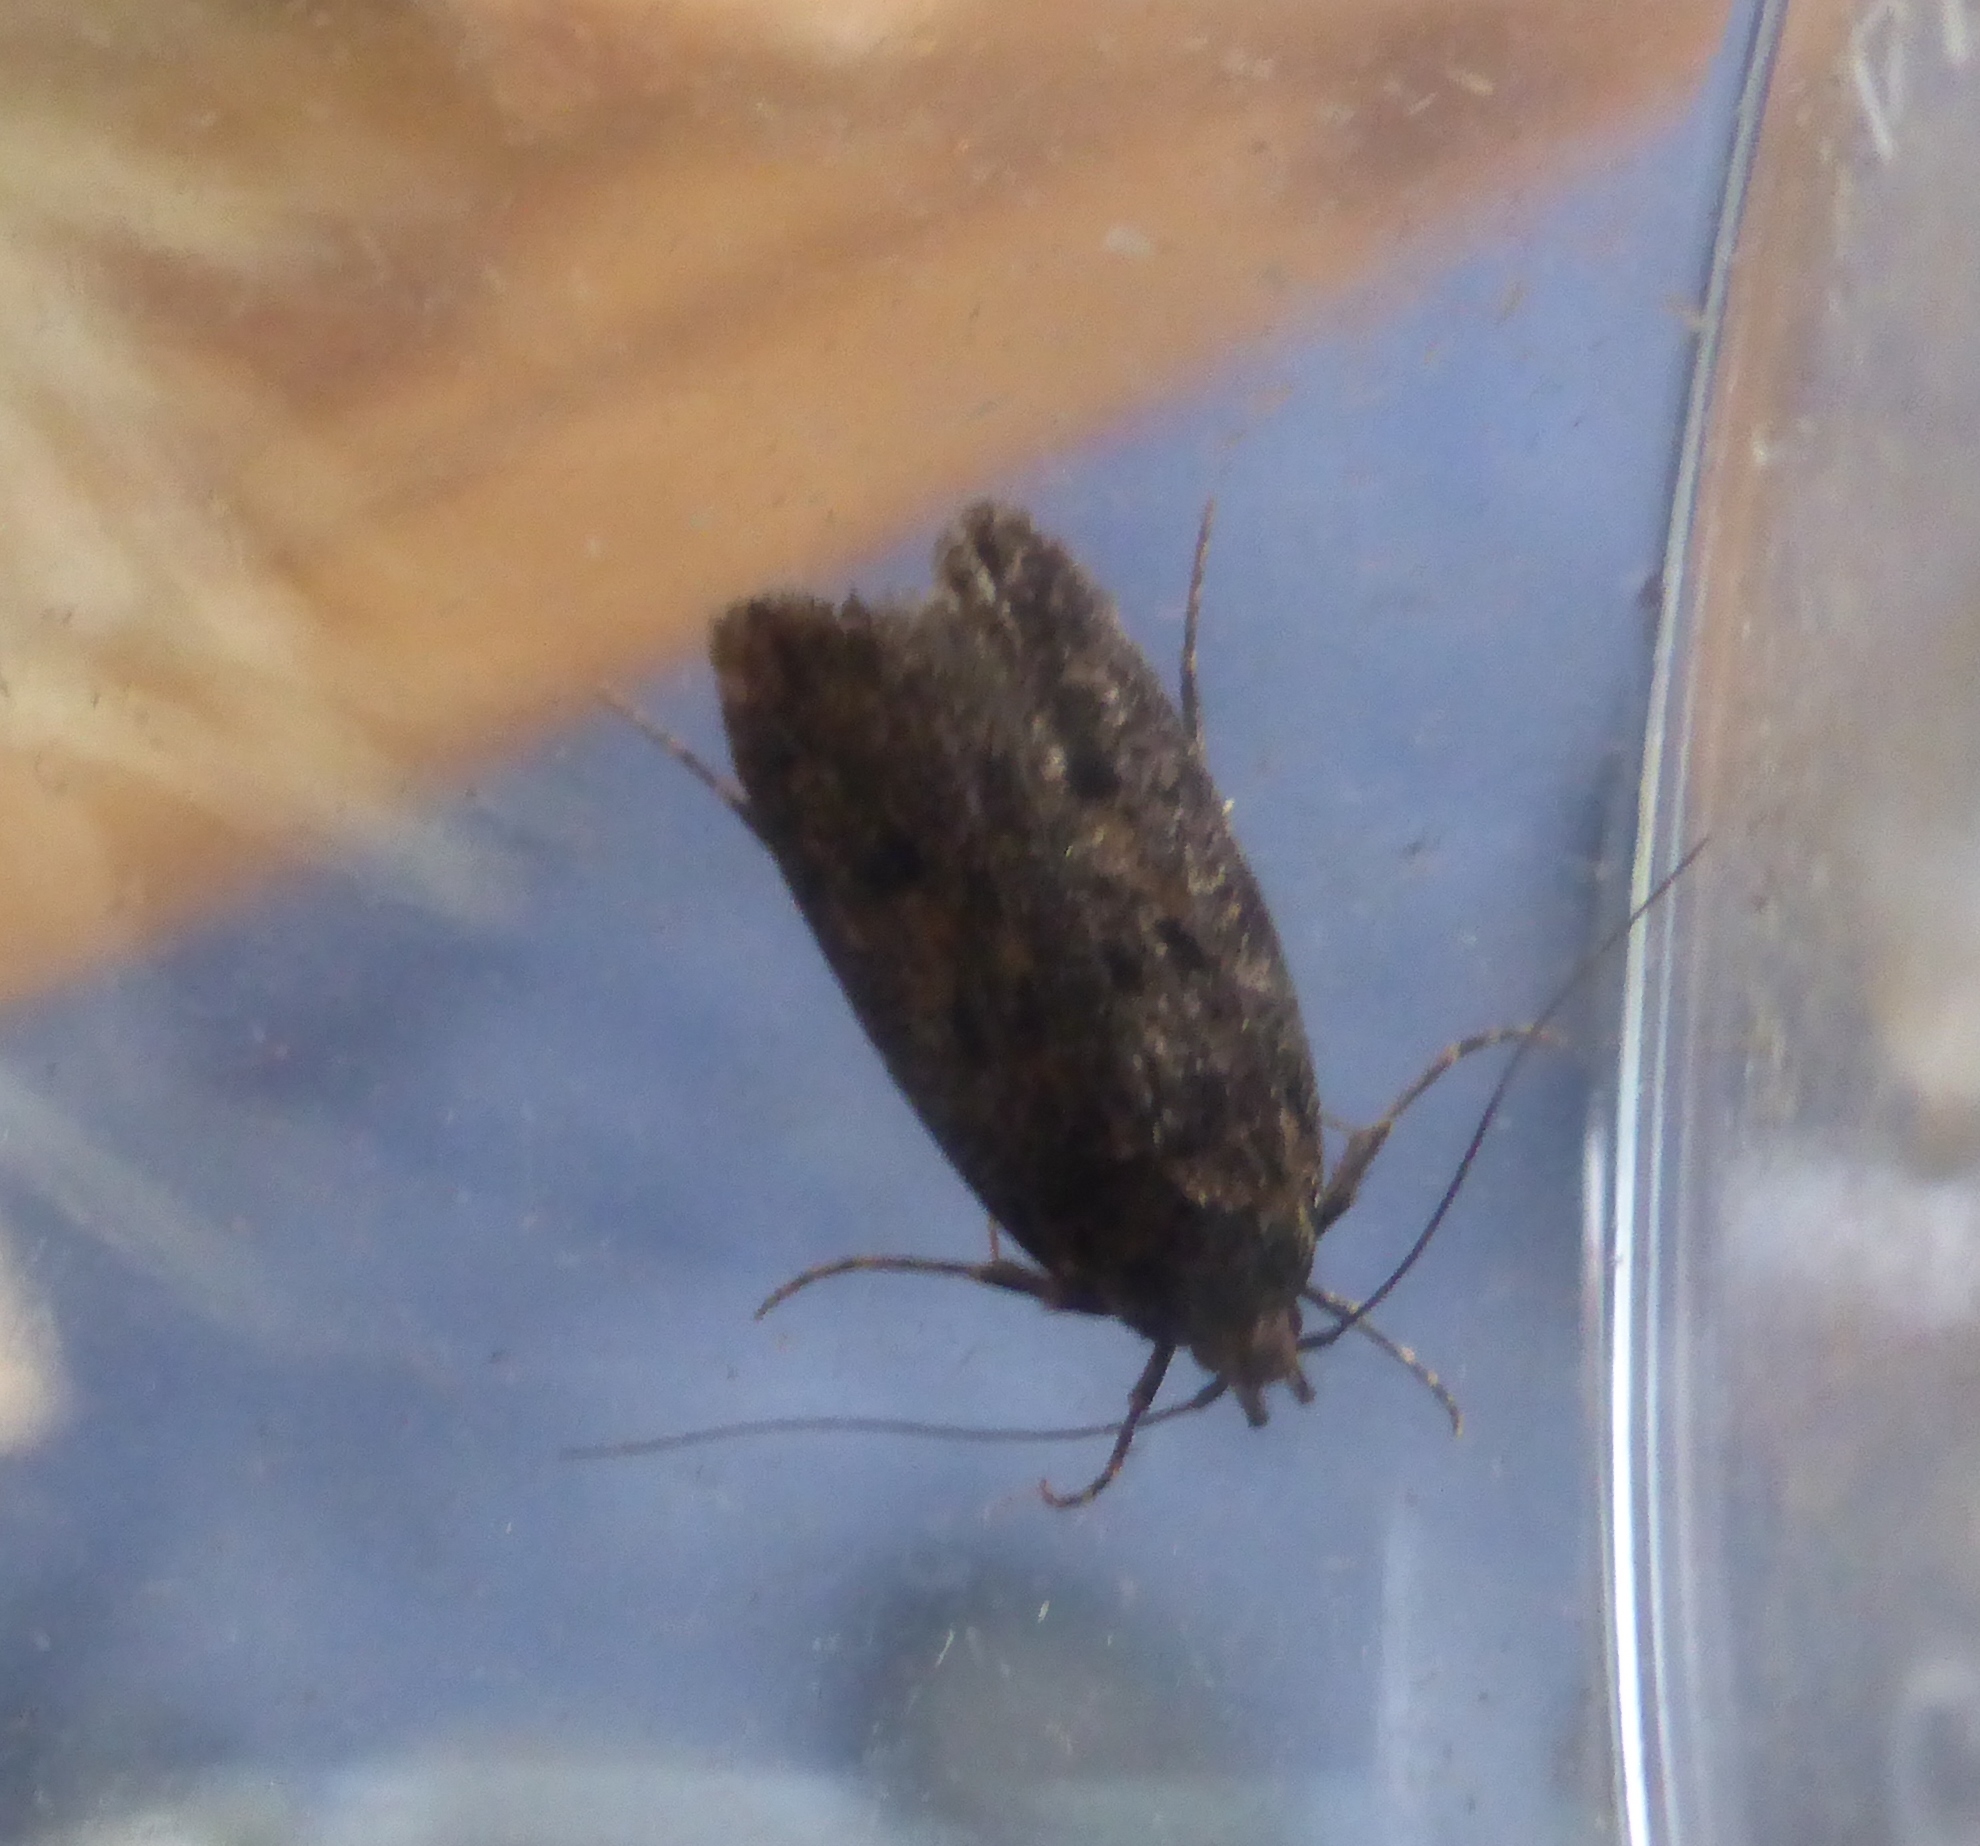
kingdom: Animalia
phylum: Arthropoda
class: Insecta
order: Lepidoptera
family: Oecophoridae
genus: Hofmannophila
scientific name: Hofmannophila pseudospretella
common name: Brown house moth
